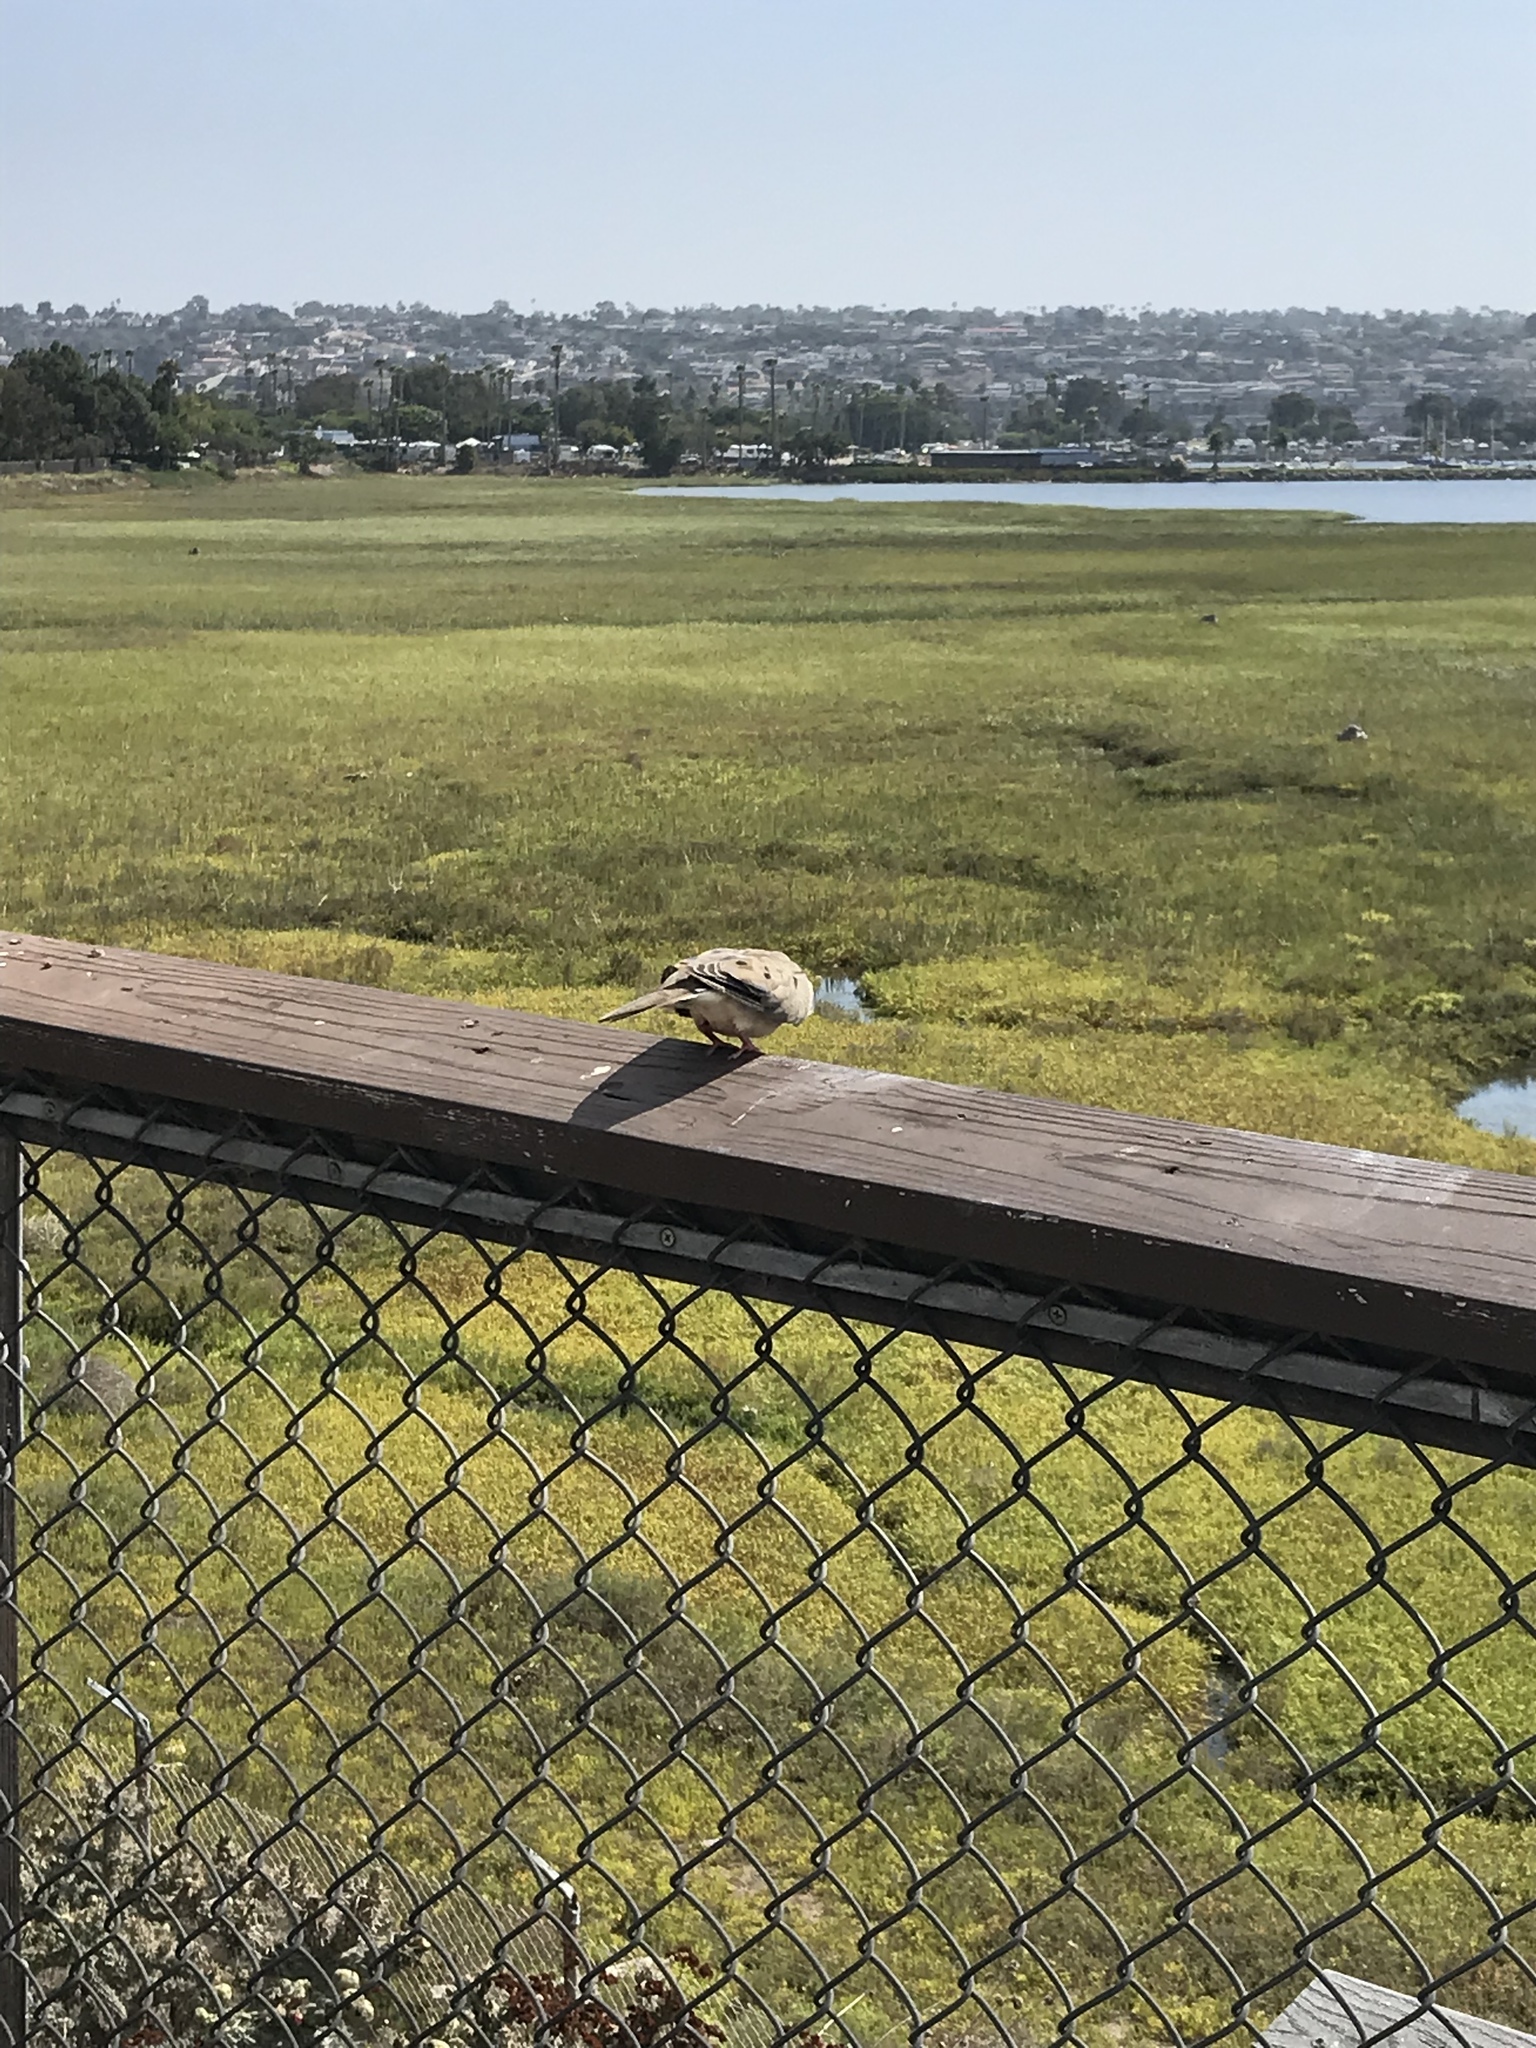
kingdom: Animalia
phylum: Chordata
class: Aves
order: Columbiformes
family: Columbidae
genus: Zenaida
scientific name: Zenaida macroura
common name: Mourning dove
